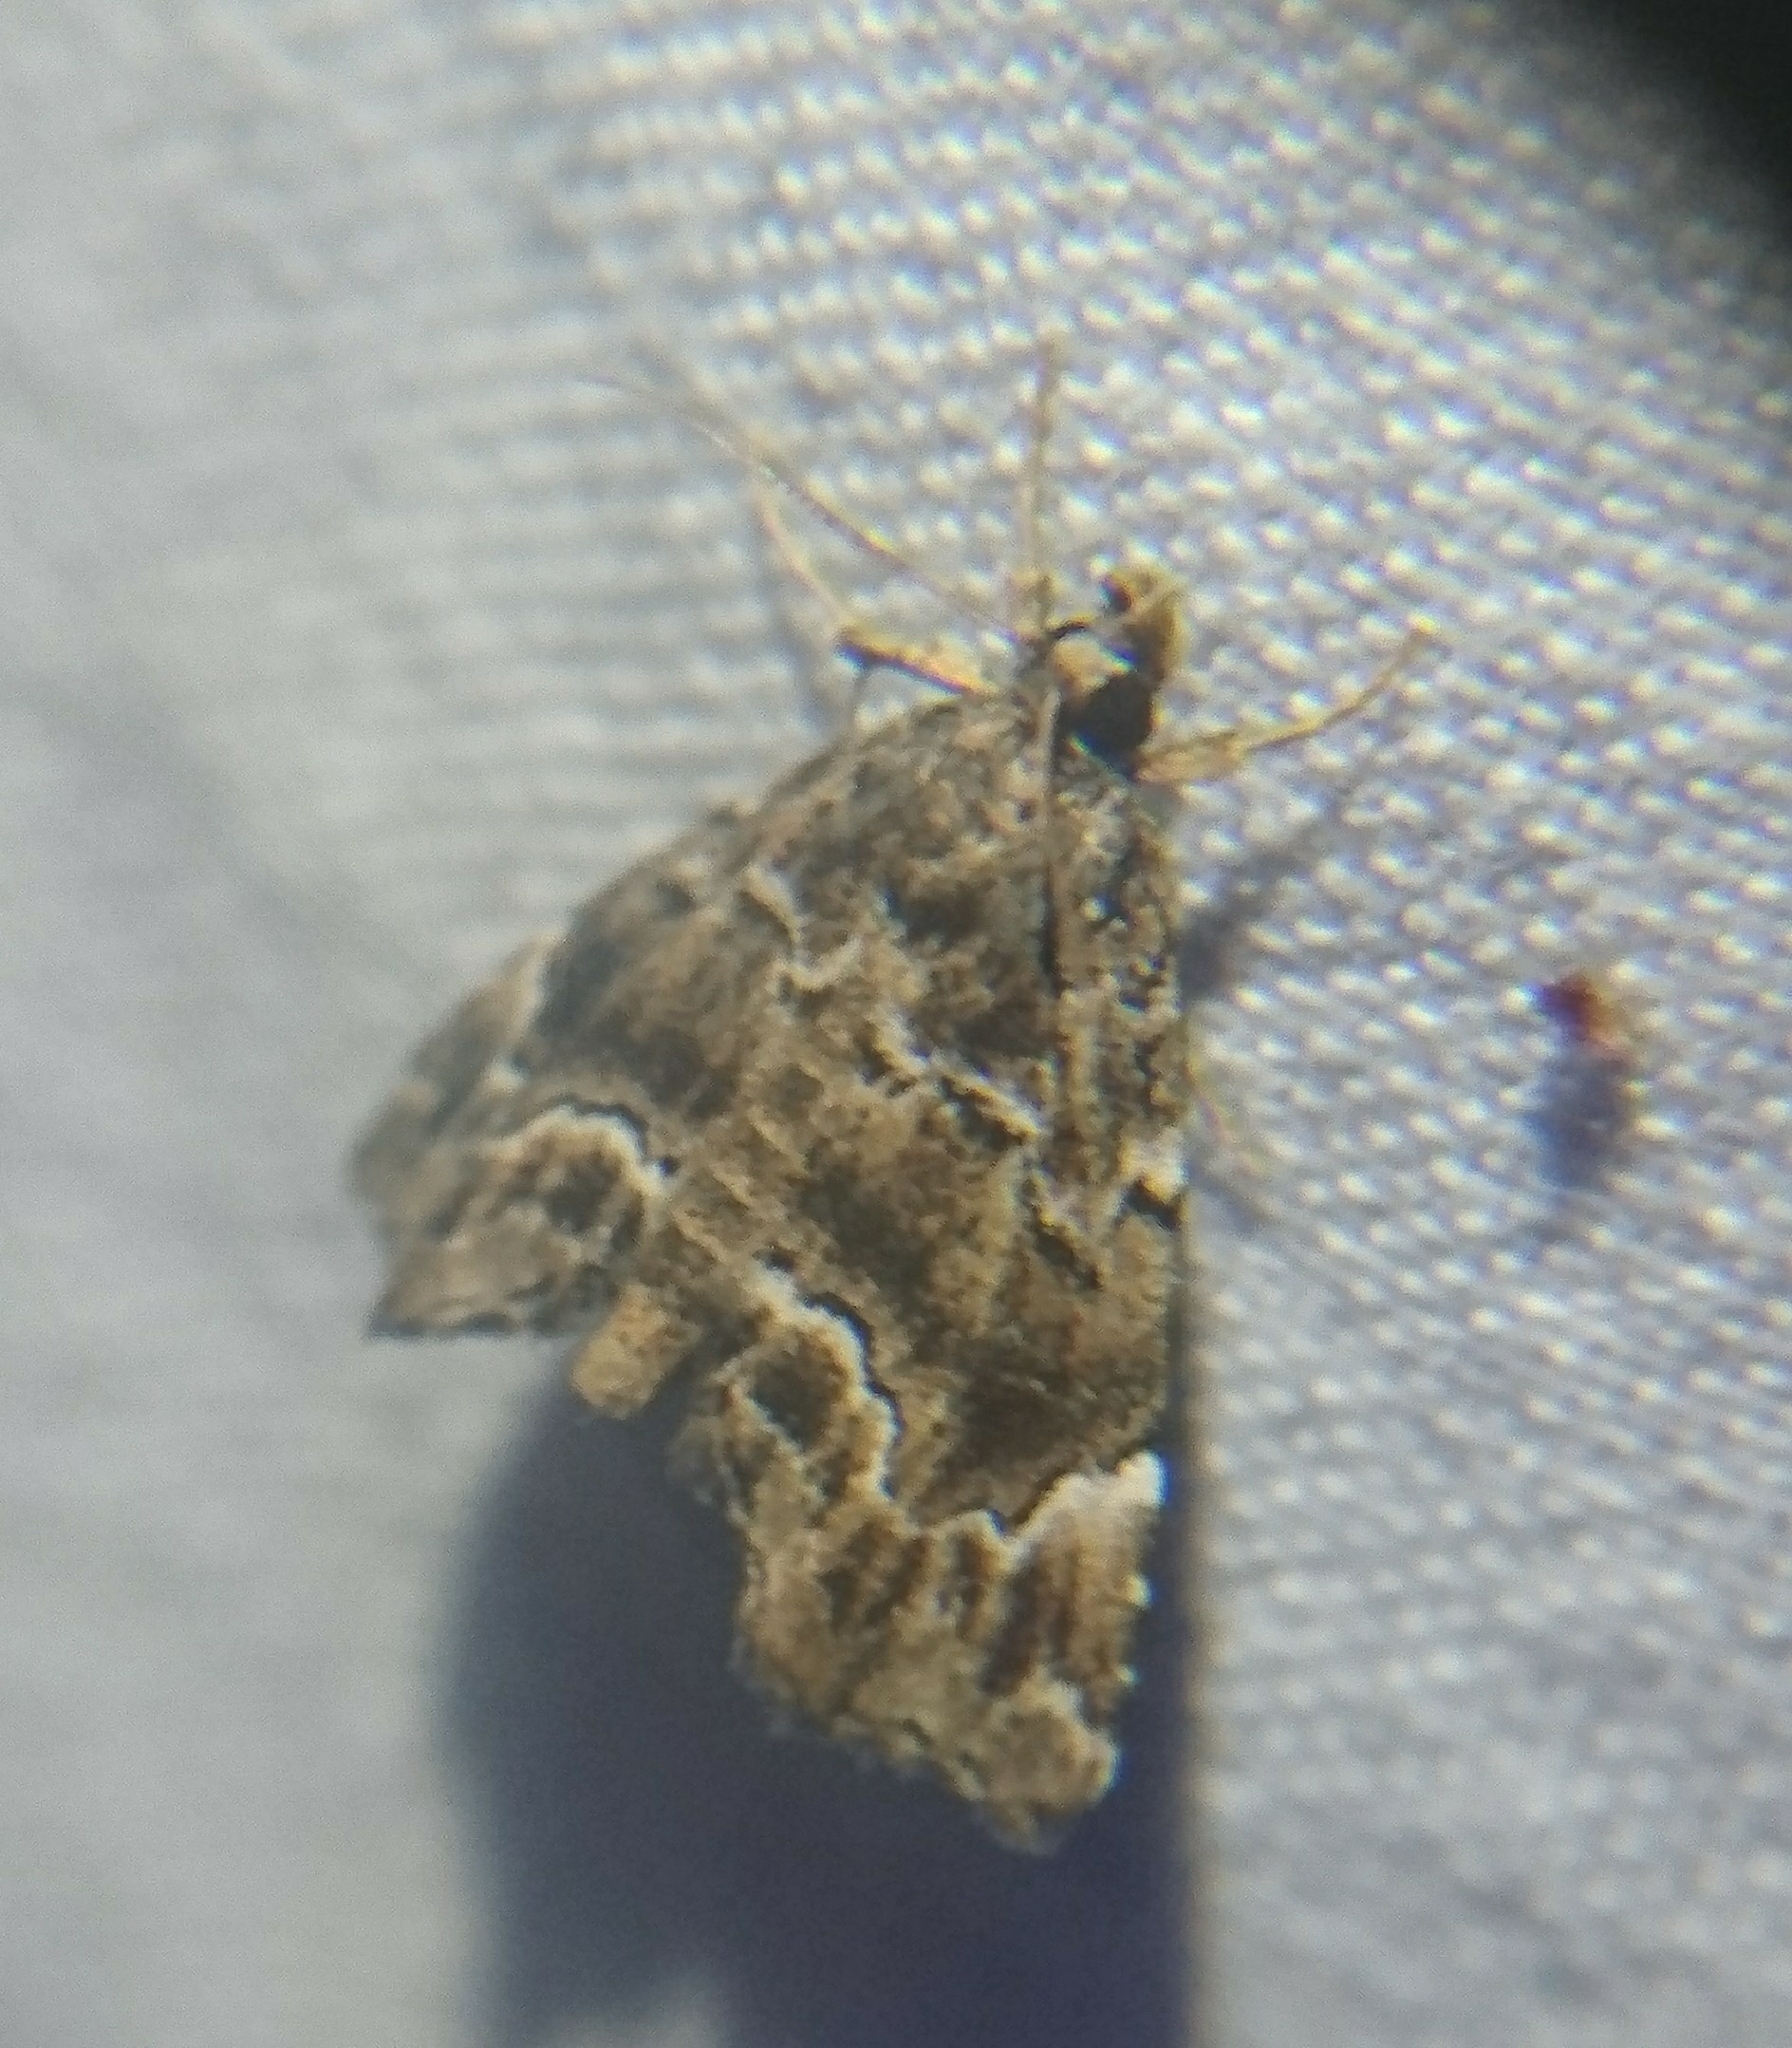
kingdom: Animalia
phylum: Arthropoda
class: Insecta
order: Lepidoptera
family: Erebidae
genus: Cutina
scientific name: Cutina arcuata
